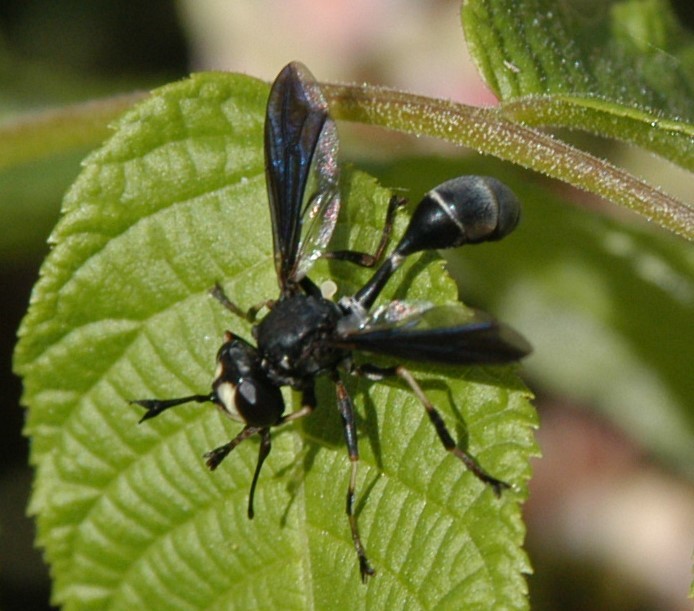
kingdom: Animalia
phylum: Arthropoda
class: Insecta
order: Diptera
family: Conopidae
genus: Physocephala
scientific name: Physocephala tibialis
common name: Common eastern physocephala
